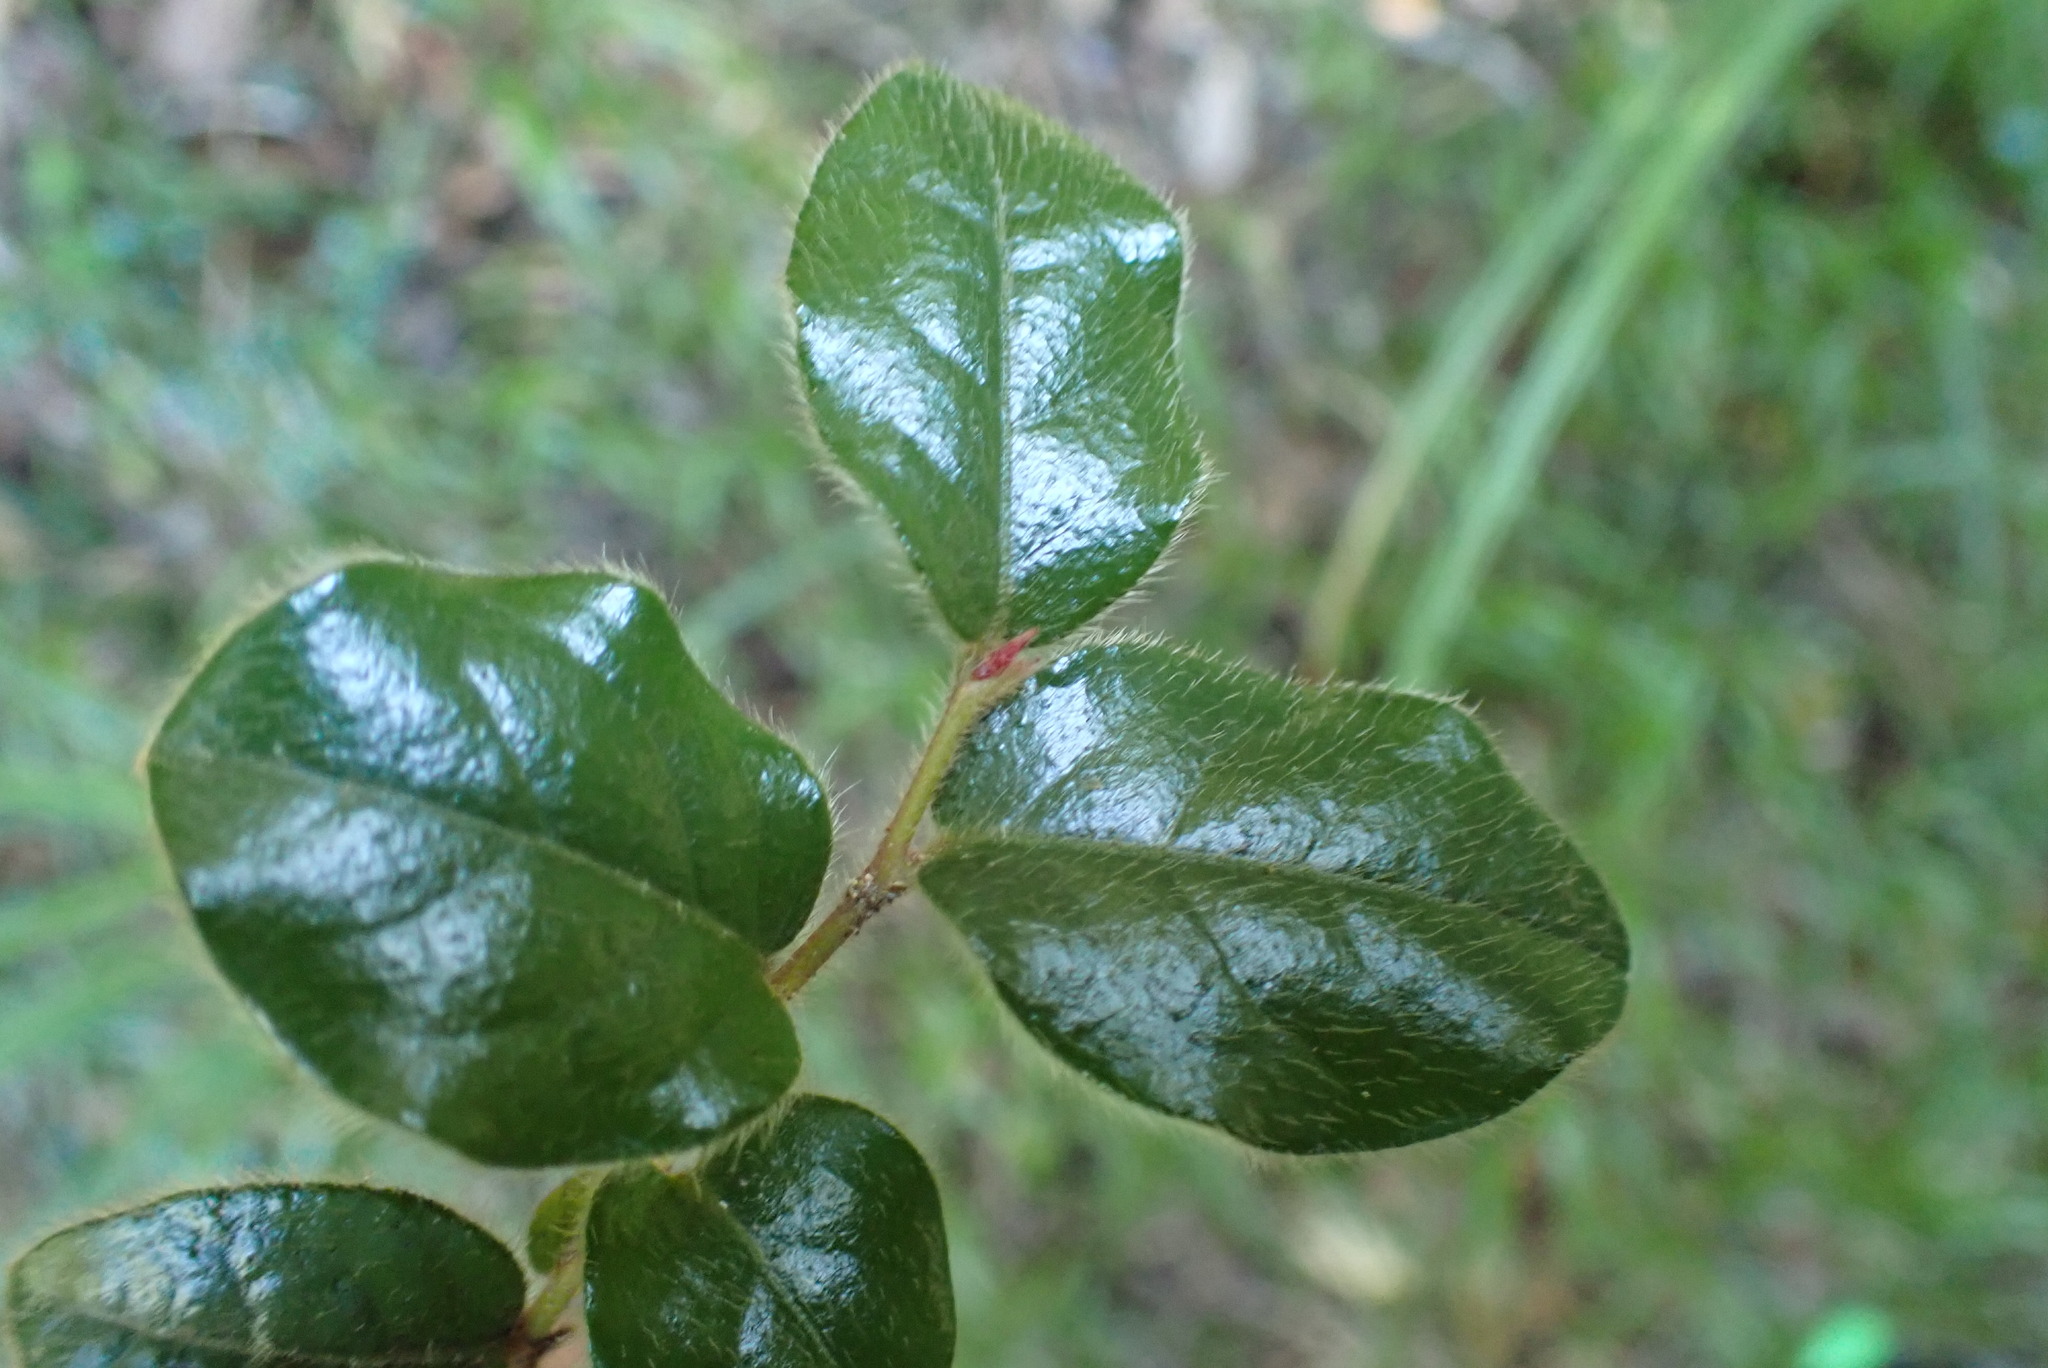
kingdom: Plantae
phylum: Tracheophyta
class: Magnoliopsida
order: Ericales
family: Ebenaceae
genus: Diospyros
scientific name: Diospyros whyteana
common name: Bladder-nut
